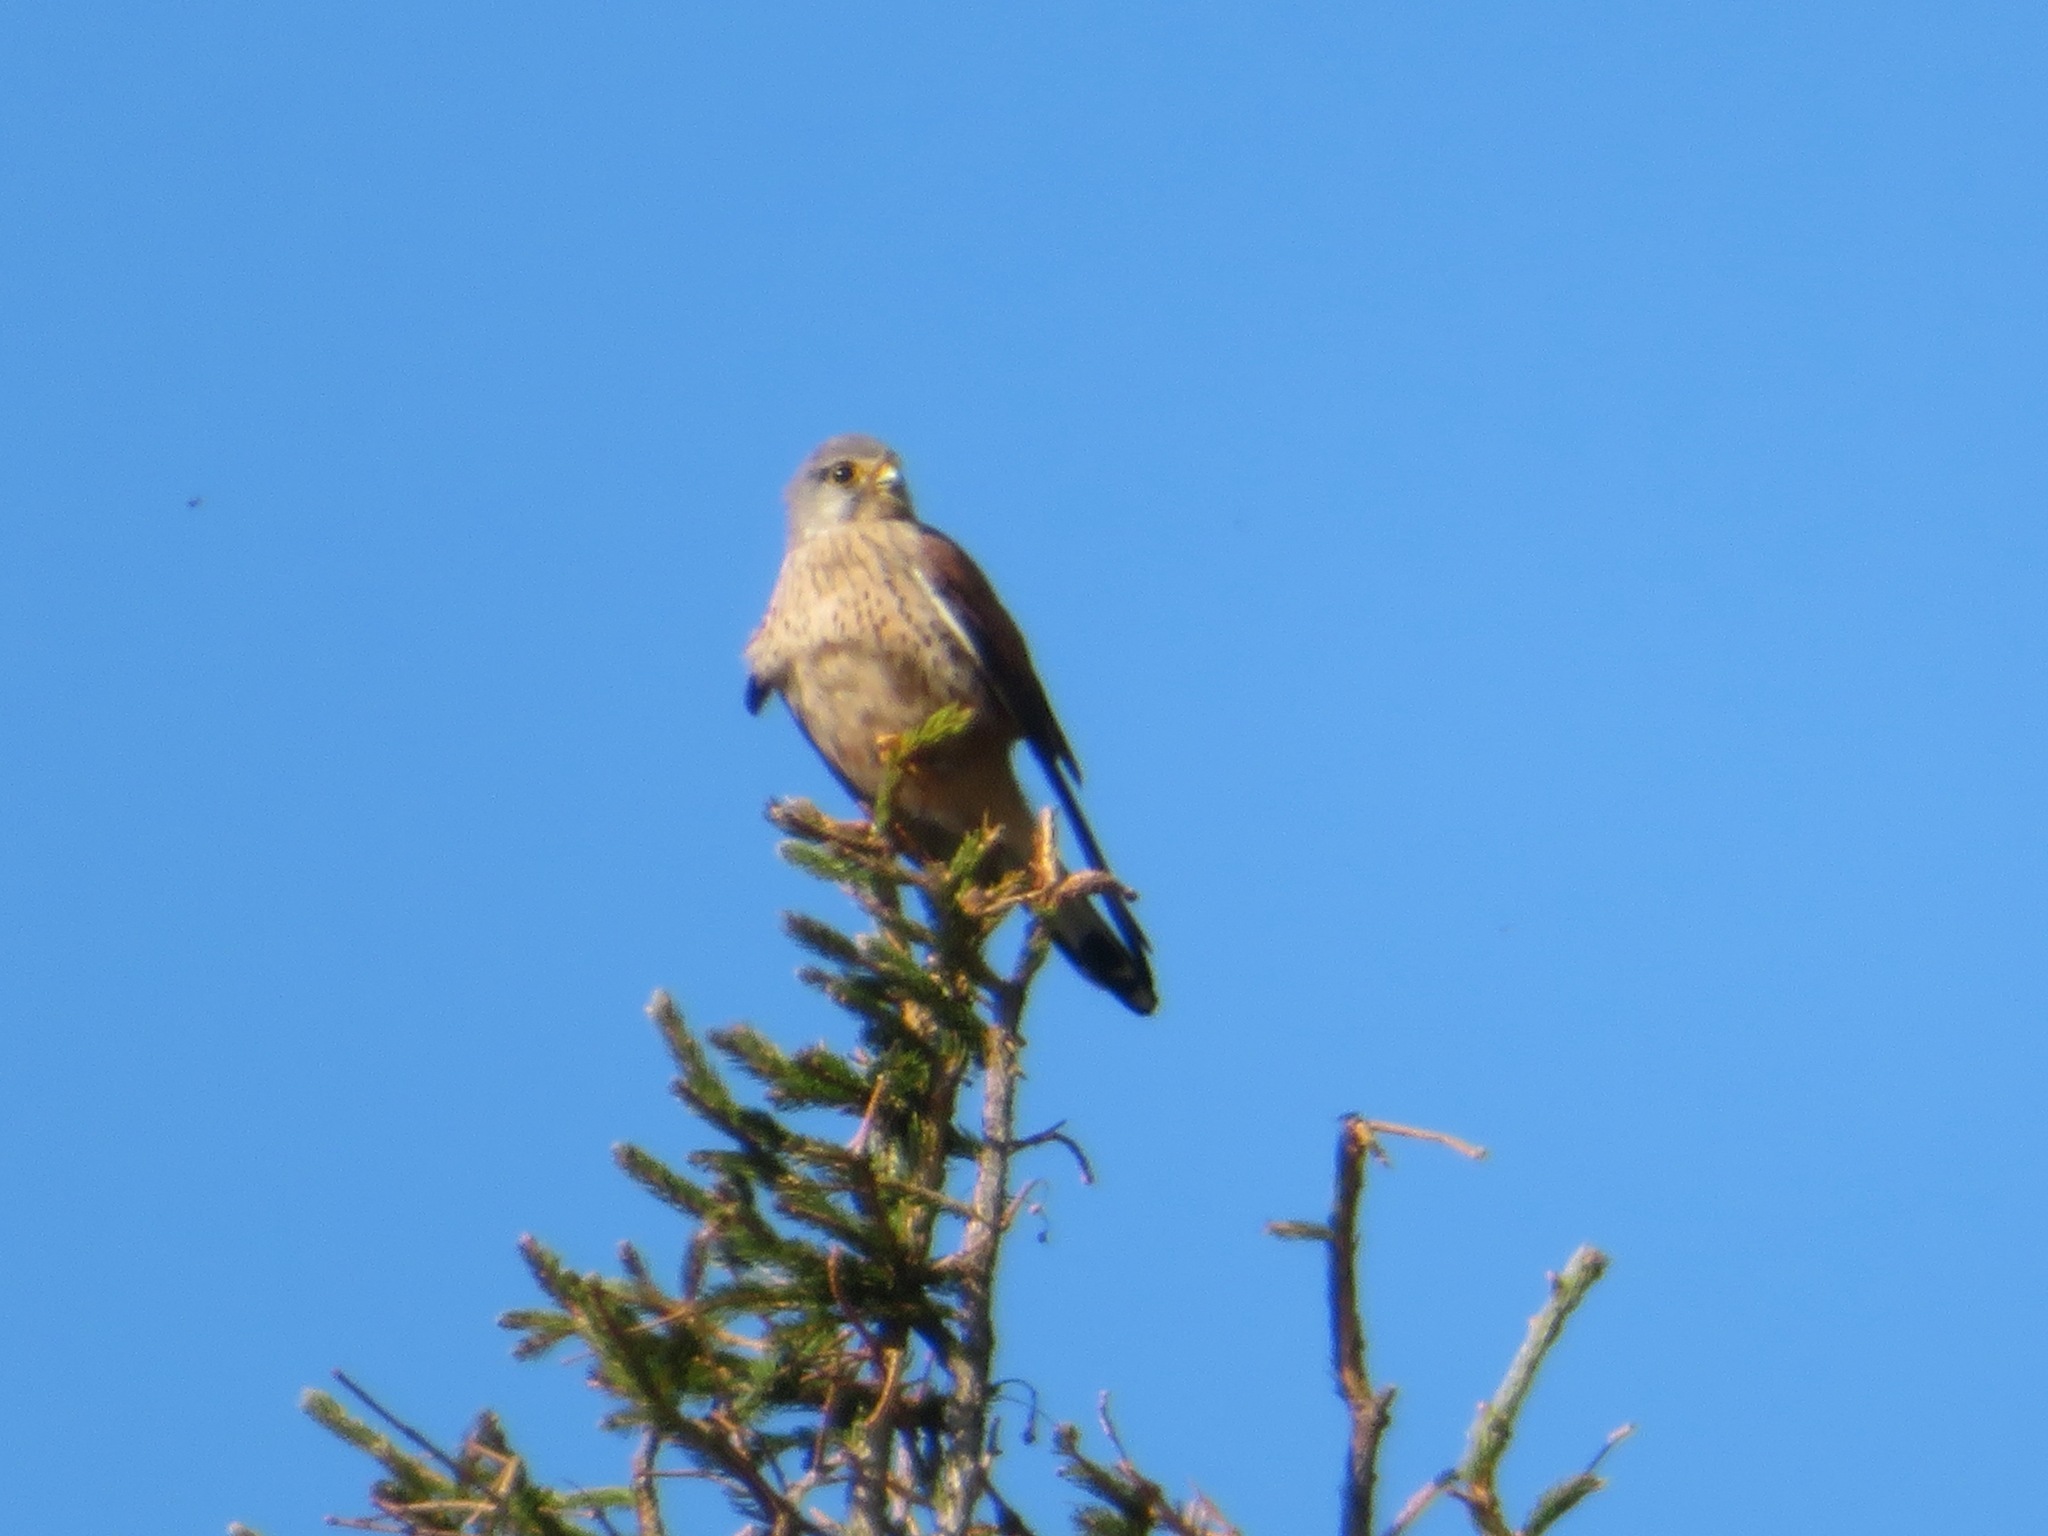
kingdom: Animalia
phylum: Chordata
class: Aves
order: Falconiformes
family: Falconidae
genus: Falco
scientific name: Falco tinnunculus
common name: Common kestrel
